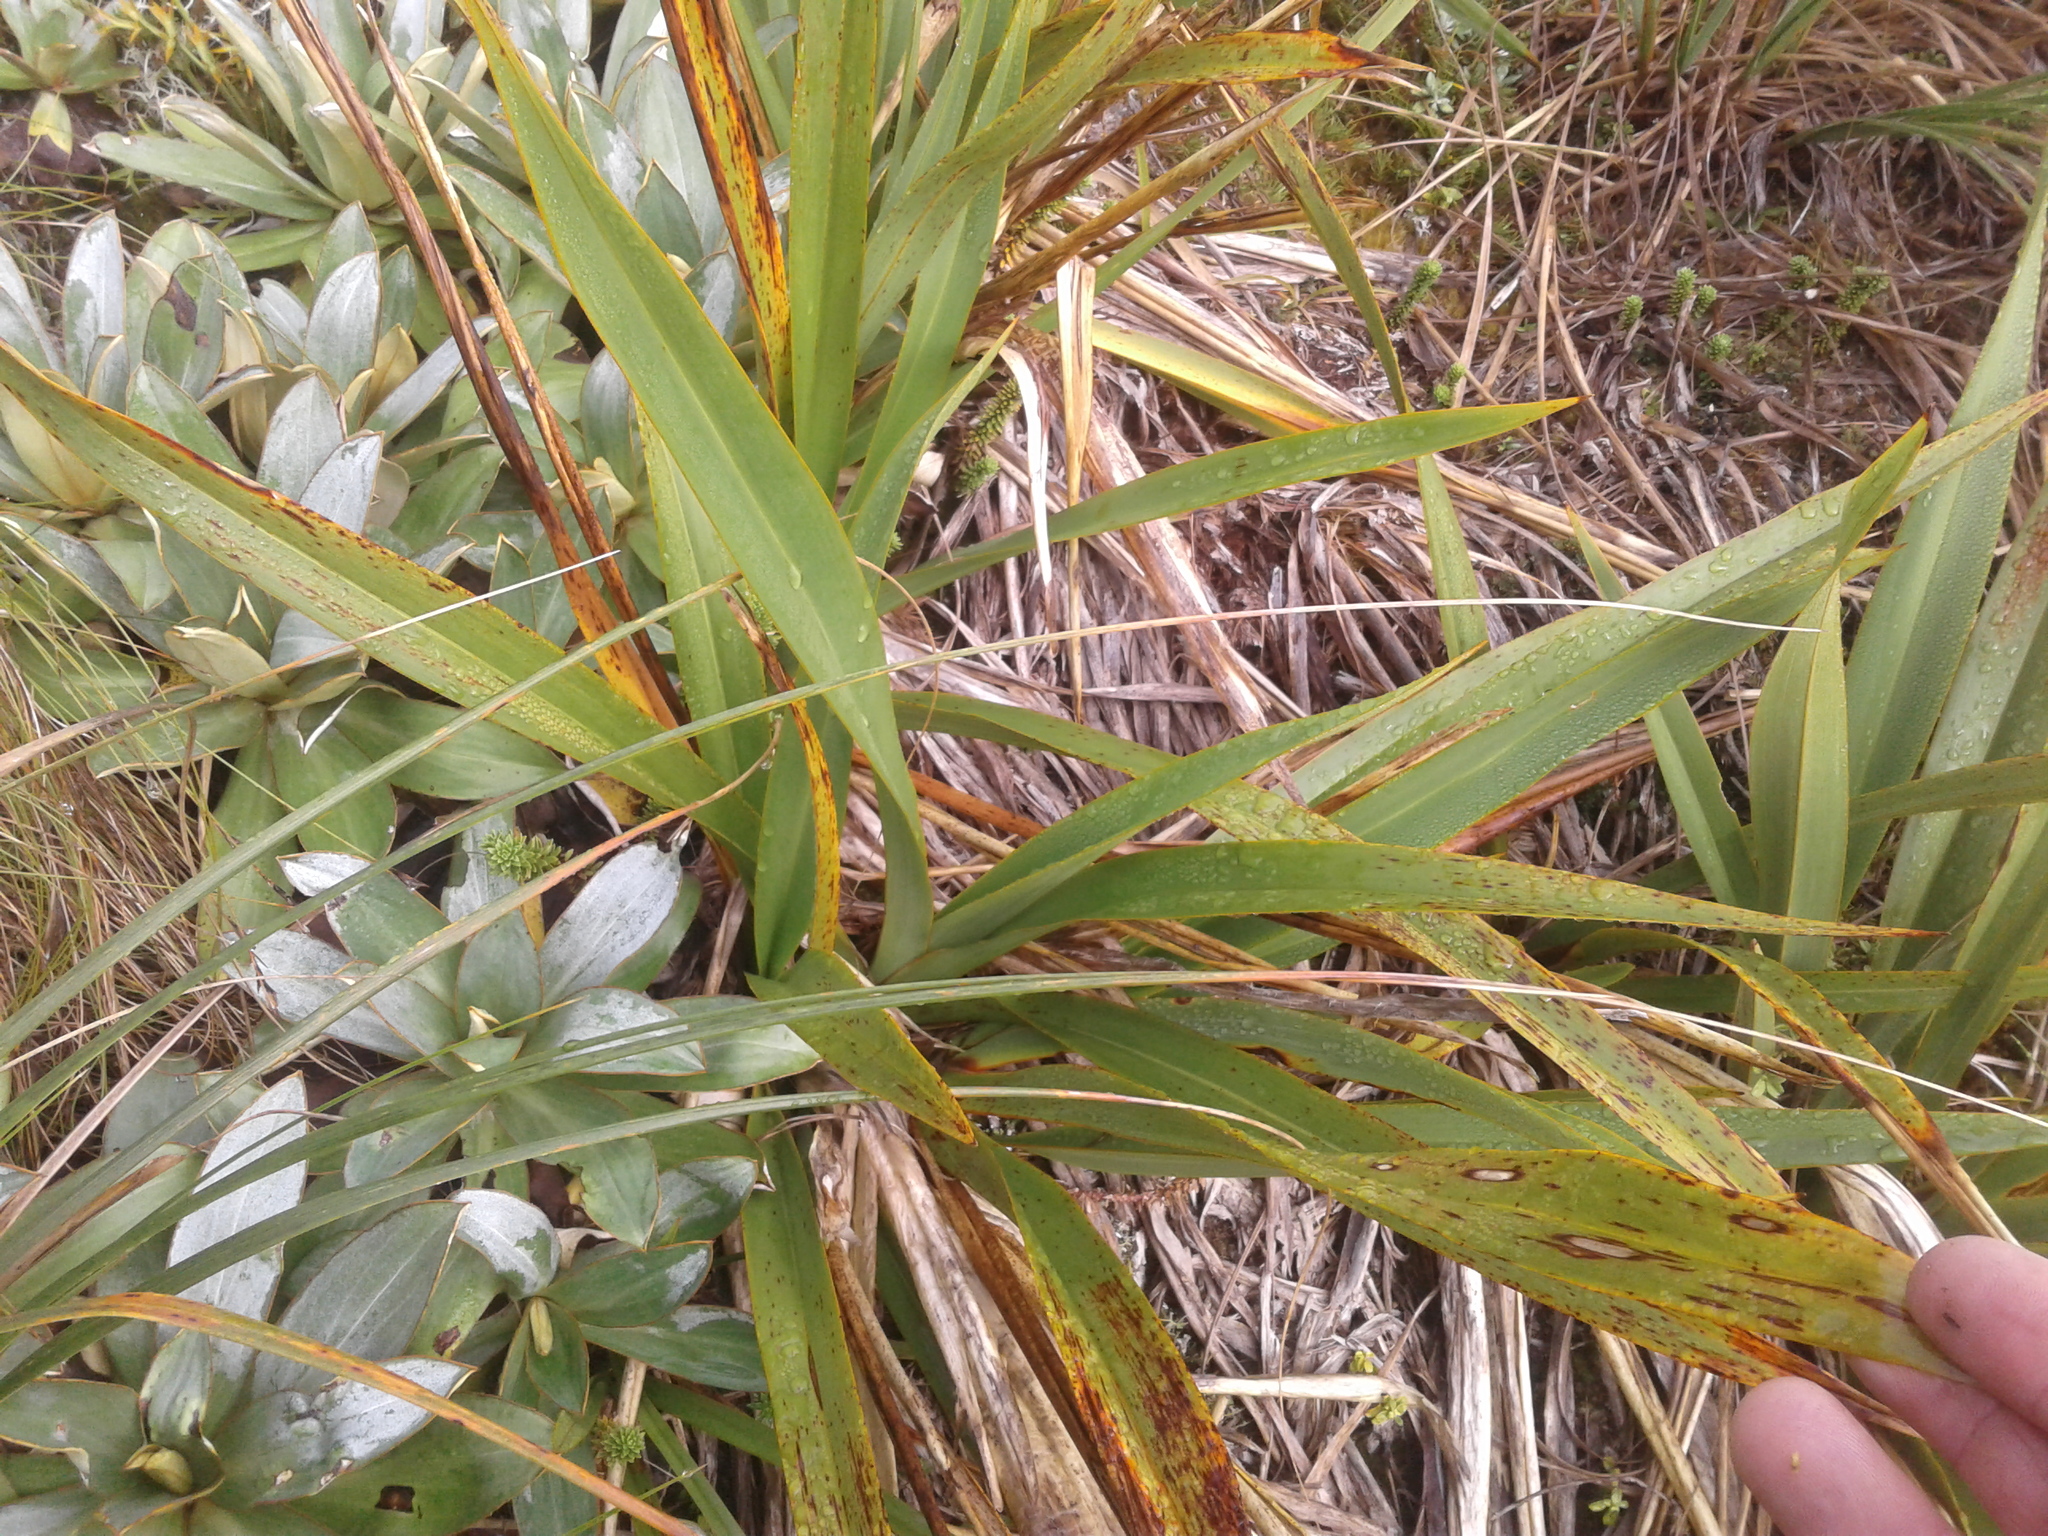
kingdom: Plantae
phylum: Tracheophyta
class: Liliopsida
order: Asparagales
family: Asphodelaceae
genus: Phormium
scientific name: Phormium colensoi
